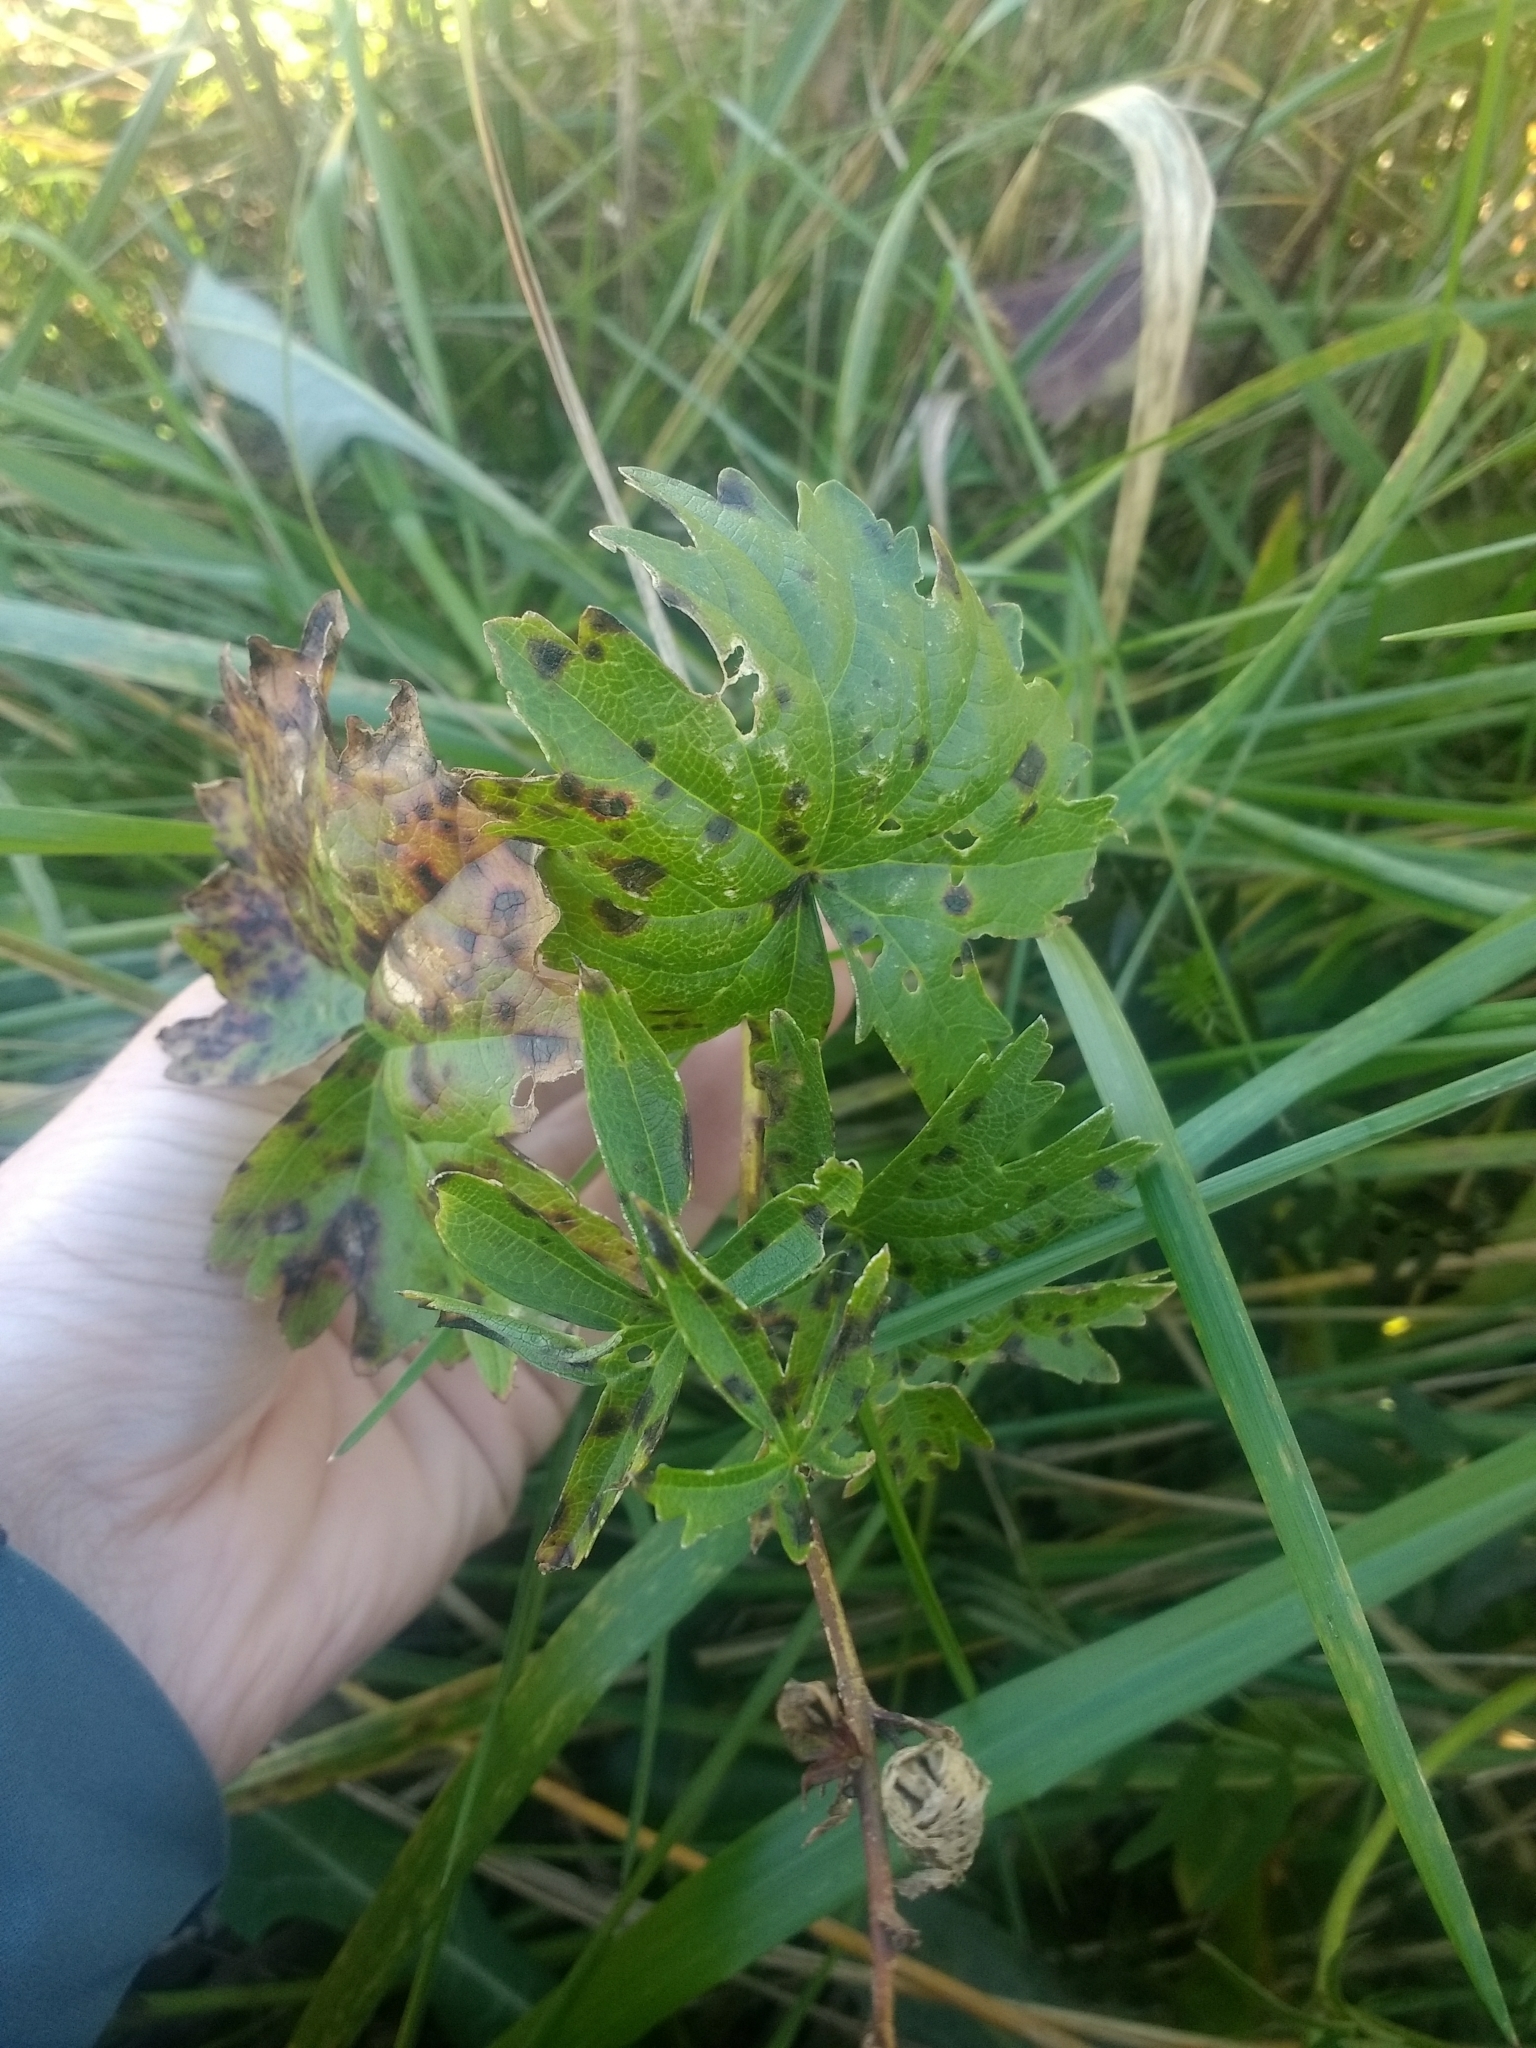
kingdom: Plantae
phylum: Tracheophyta
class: Magnoliopsida
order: Malvales
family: Malvaceae
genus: Sidalcea
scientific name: Sidalcea hendersonii
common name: Mallow
